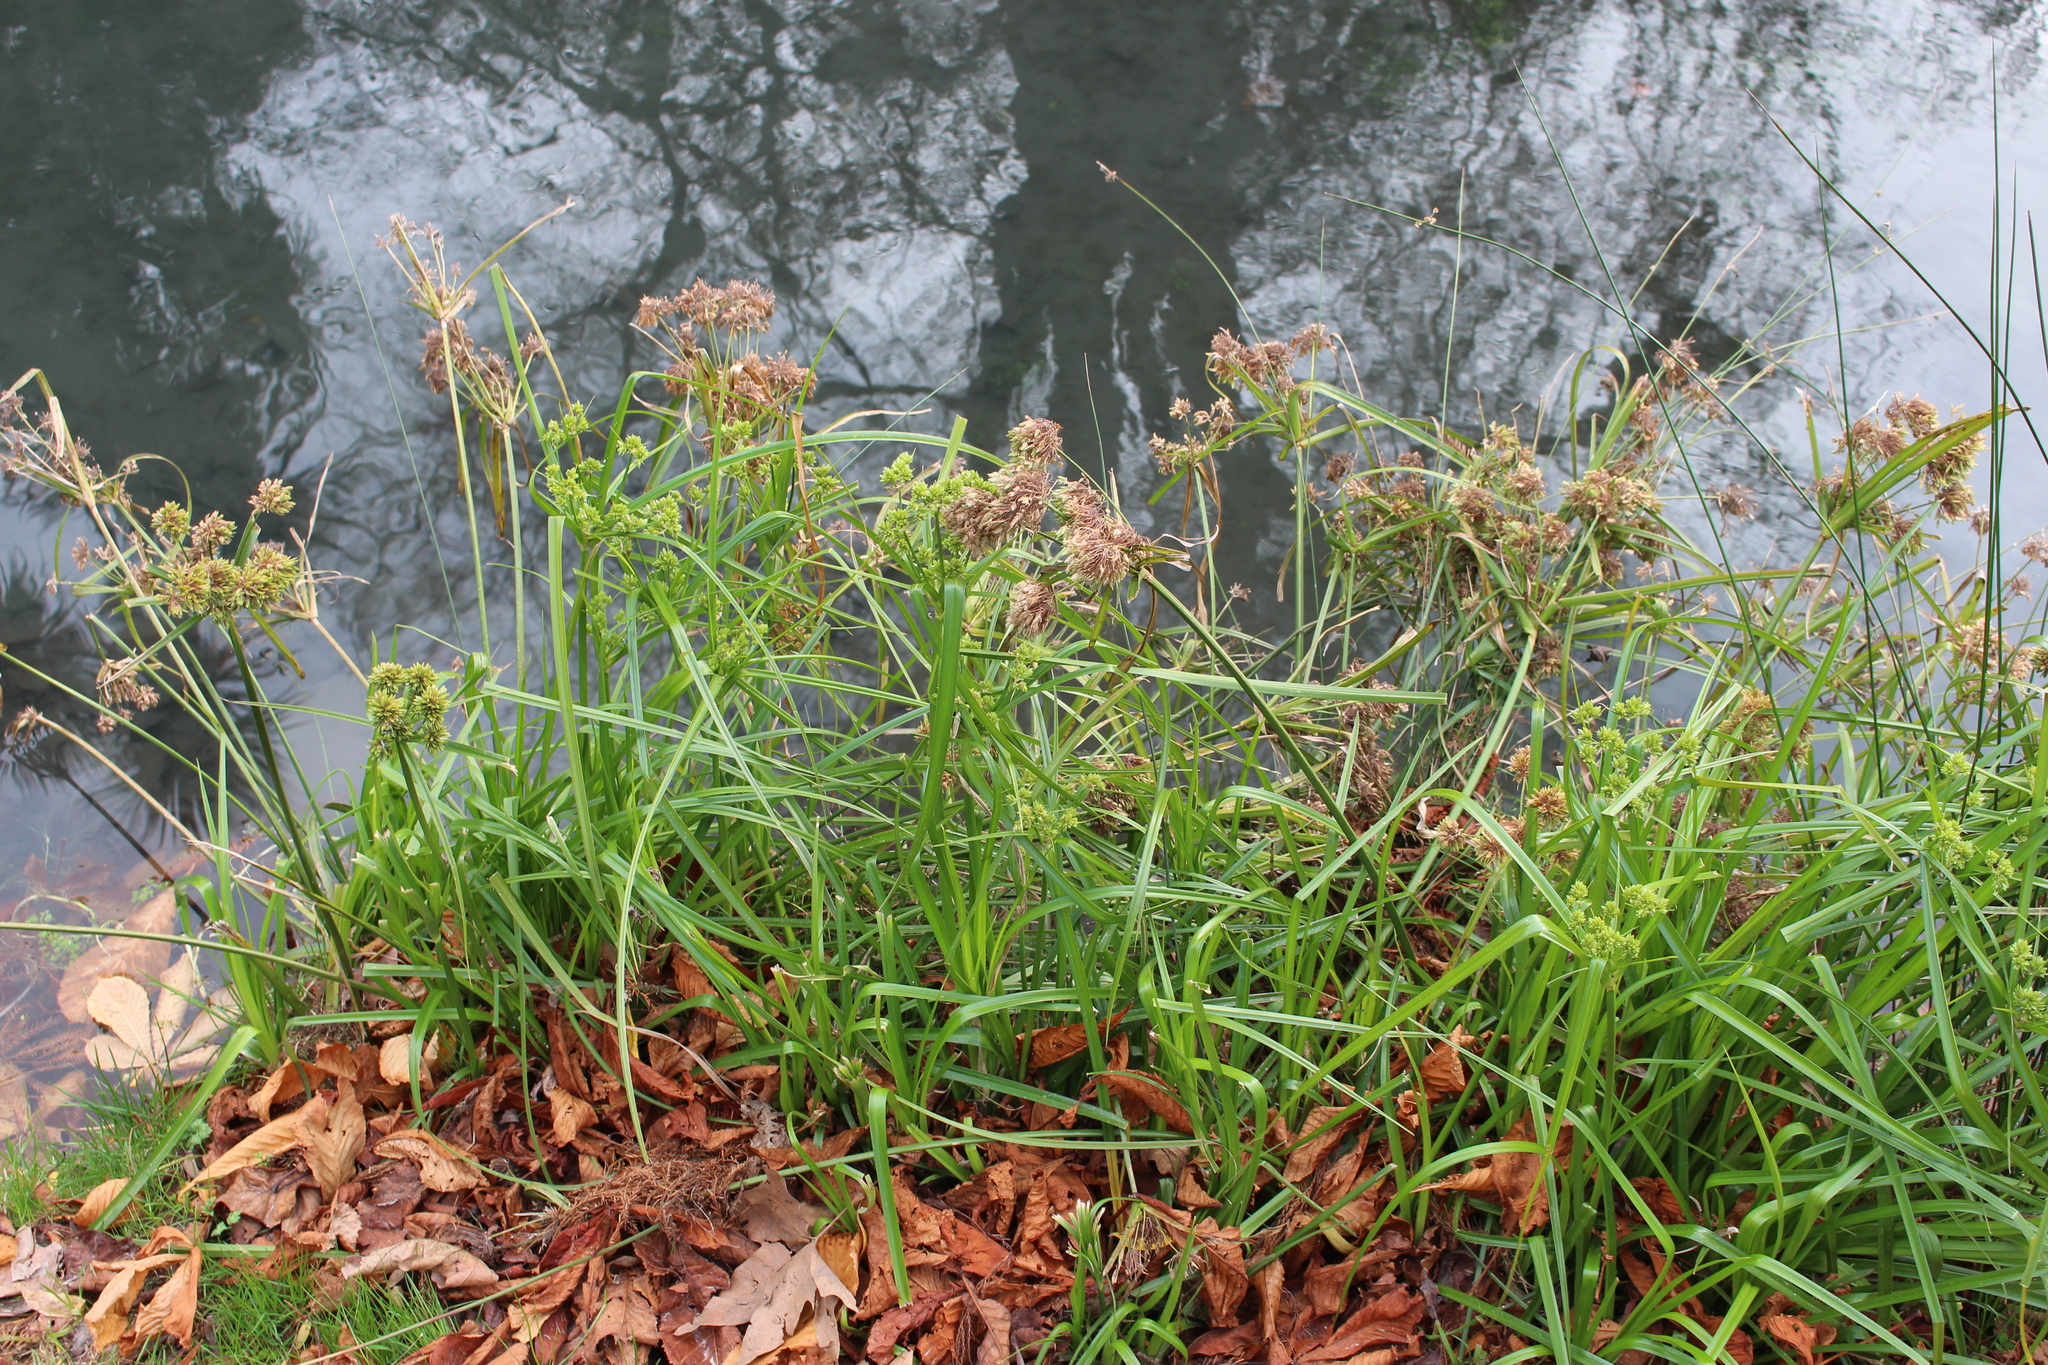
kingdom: Plantae
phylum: Tracheophyta
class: Liliopsida
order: Poales
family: Cyperaceae
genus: Cyperus
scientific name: Cyperus eragrostis
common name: Tall flatsedge
